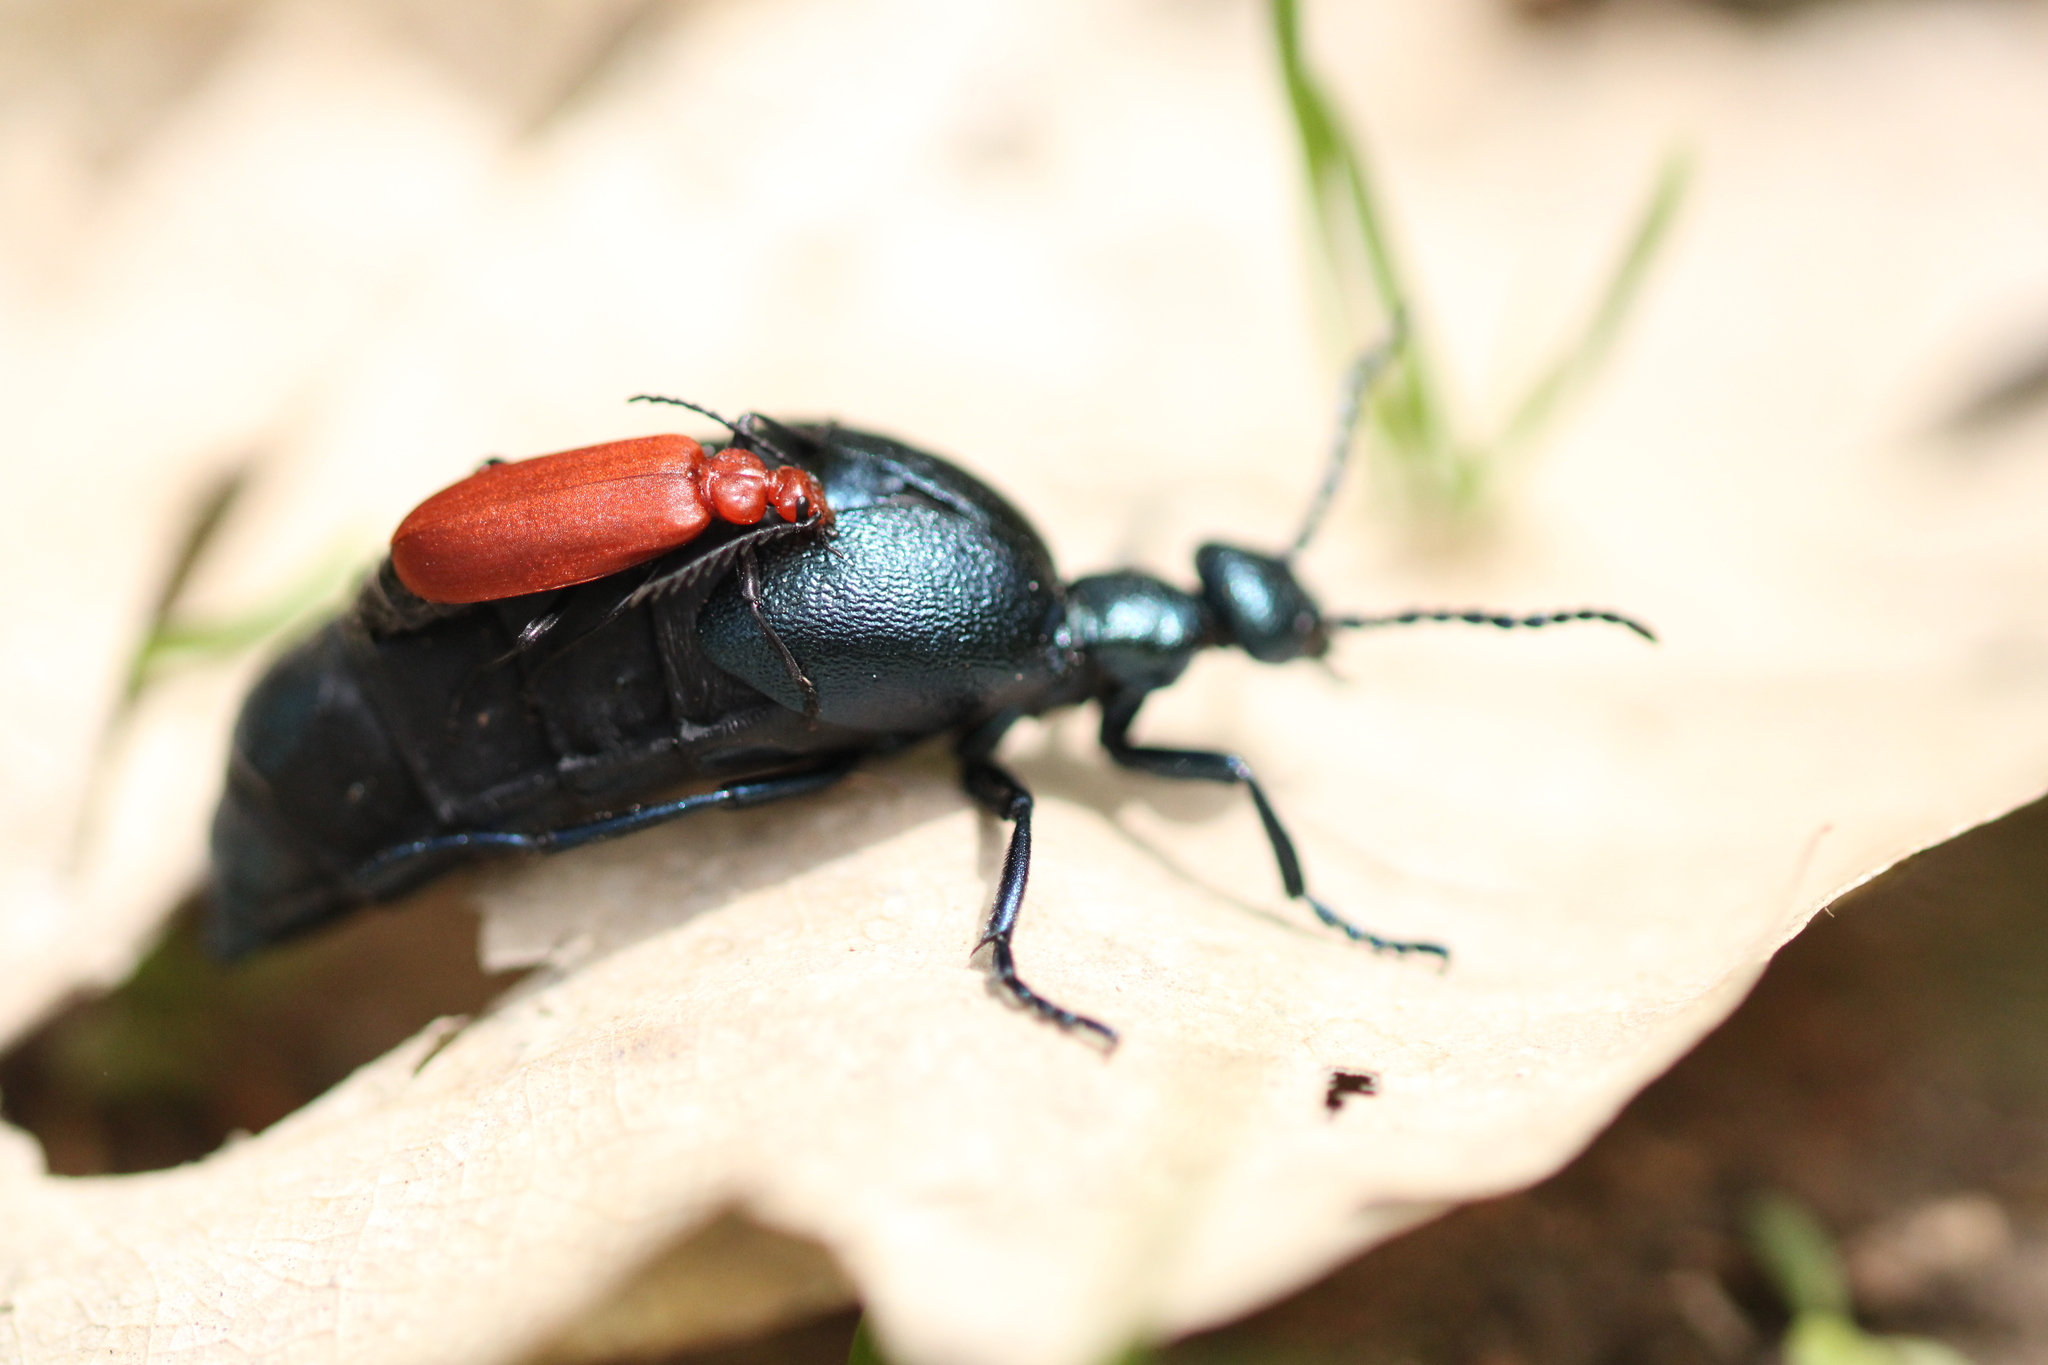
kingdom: Animalia
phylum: Arthropoda
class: Insecta
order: Coleoptera
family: Pyrochroidae
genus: Pyrochroa
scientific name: Pyrochroa serraticornis
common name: Red-headed cardinal beetle
